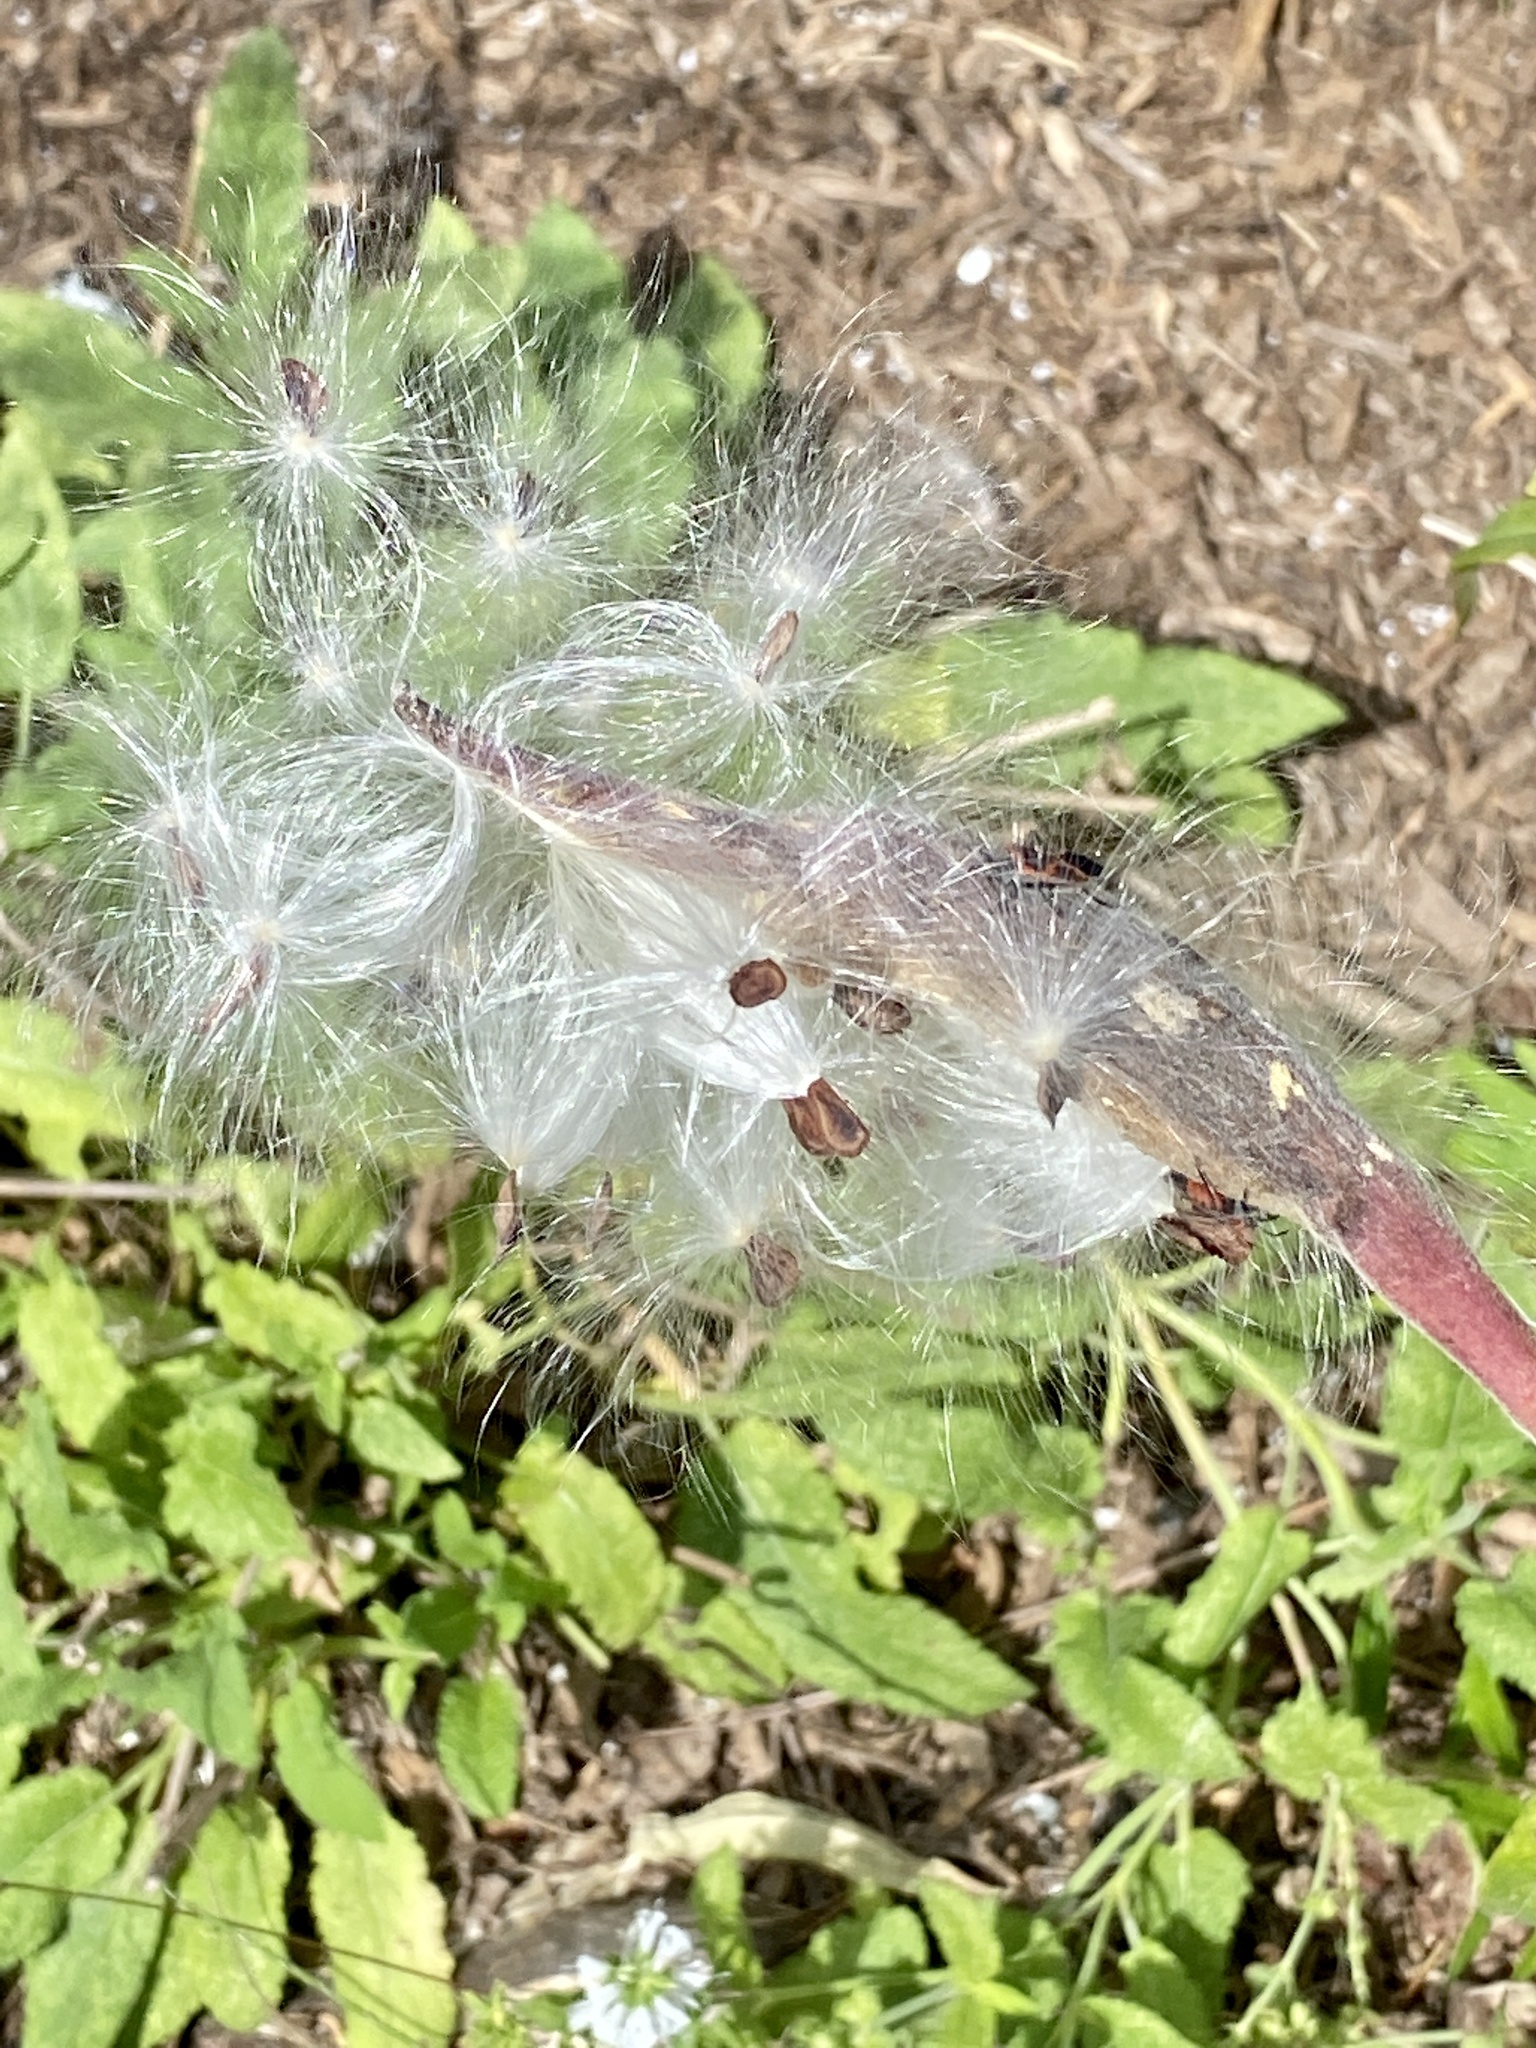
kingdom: Plantae
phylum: Tracheophyta
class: Magnoliopsida
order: Gentianales
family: Apocynaceae
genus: Asclepias
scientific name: Asclepias tuberosa
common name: Butterfly milkweed
